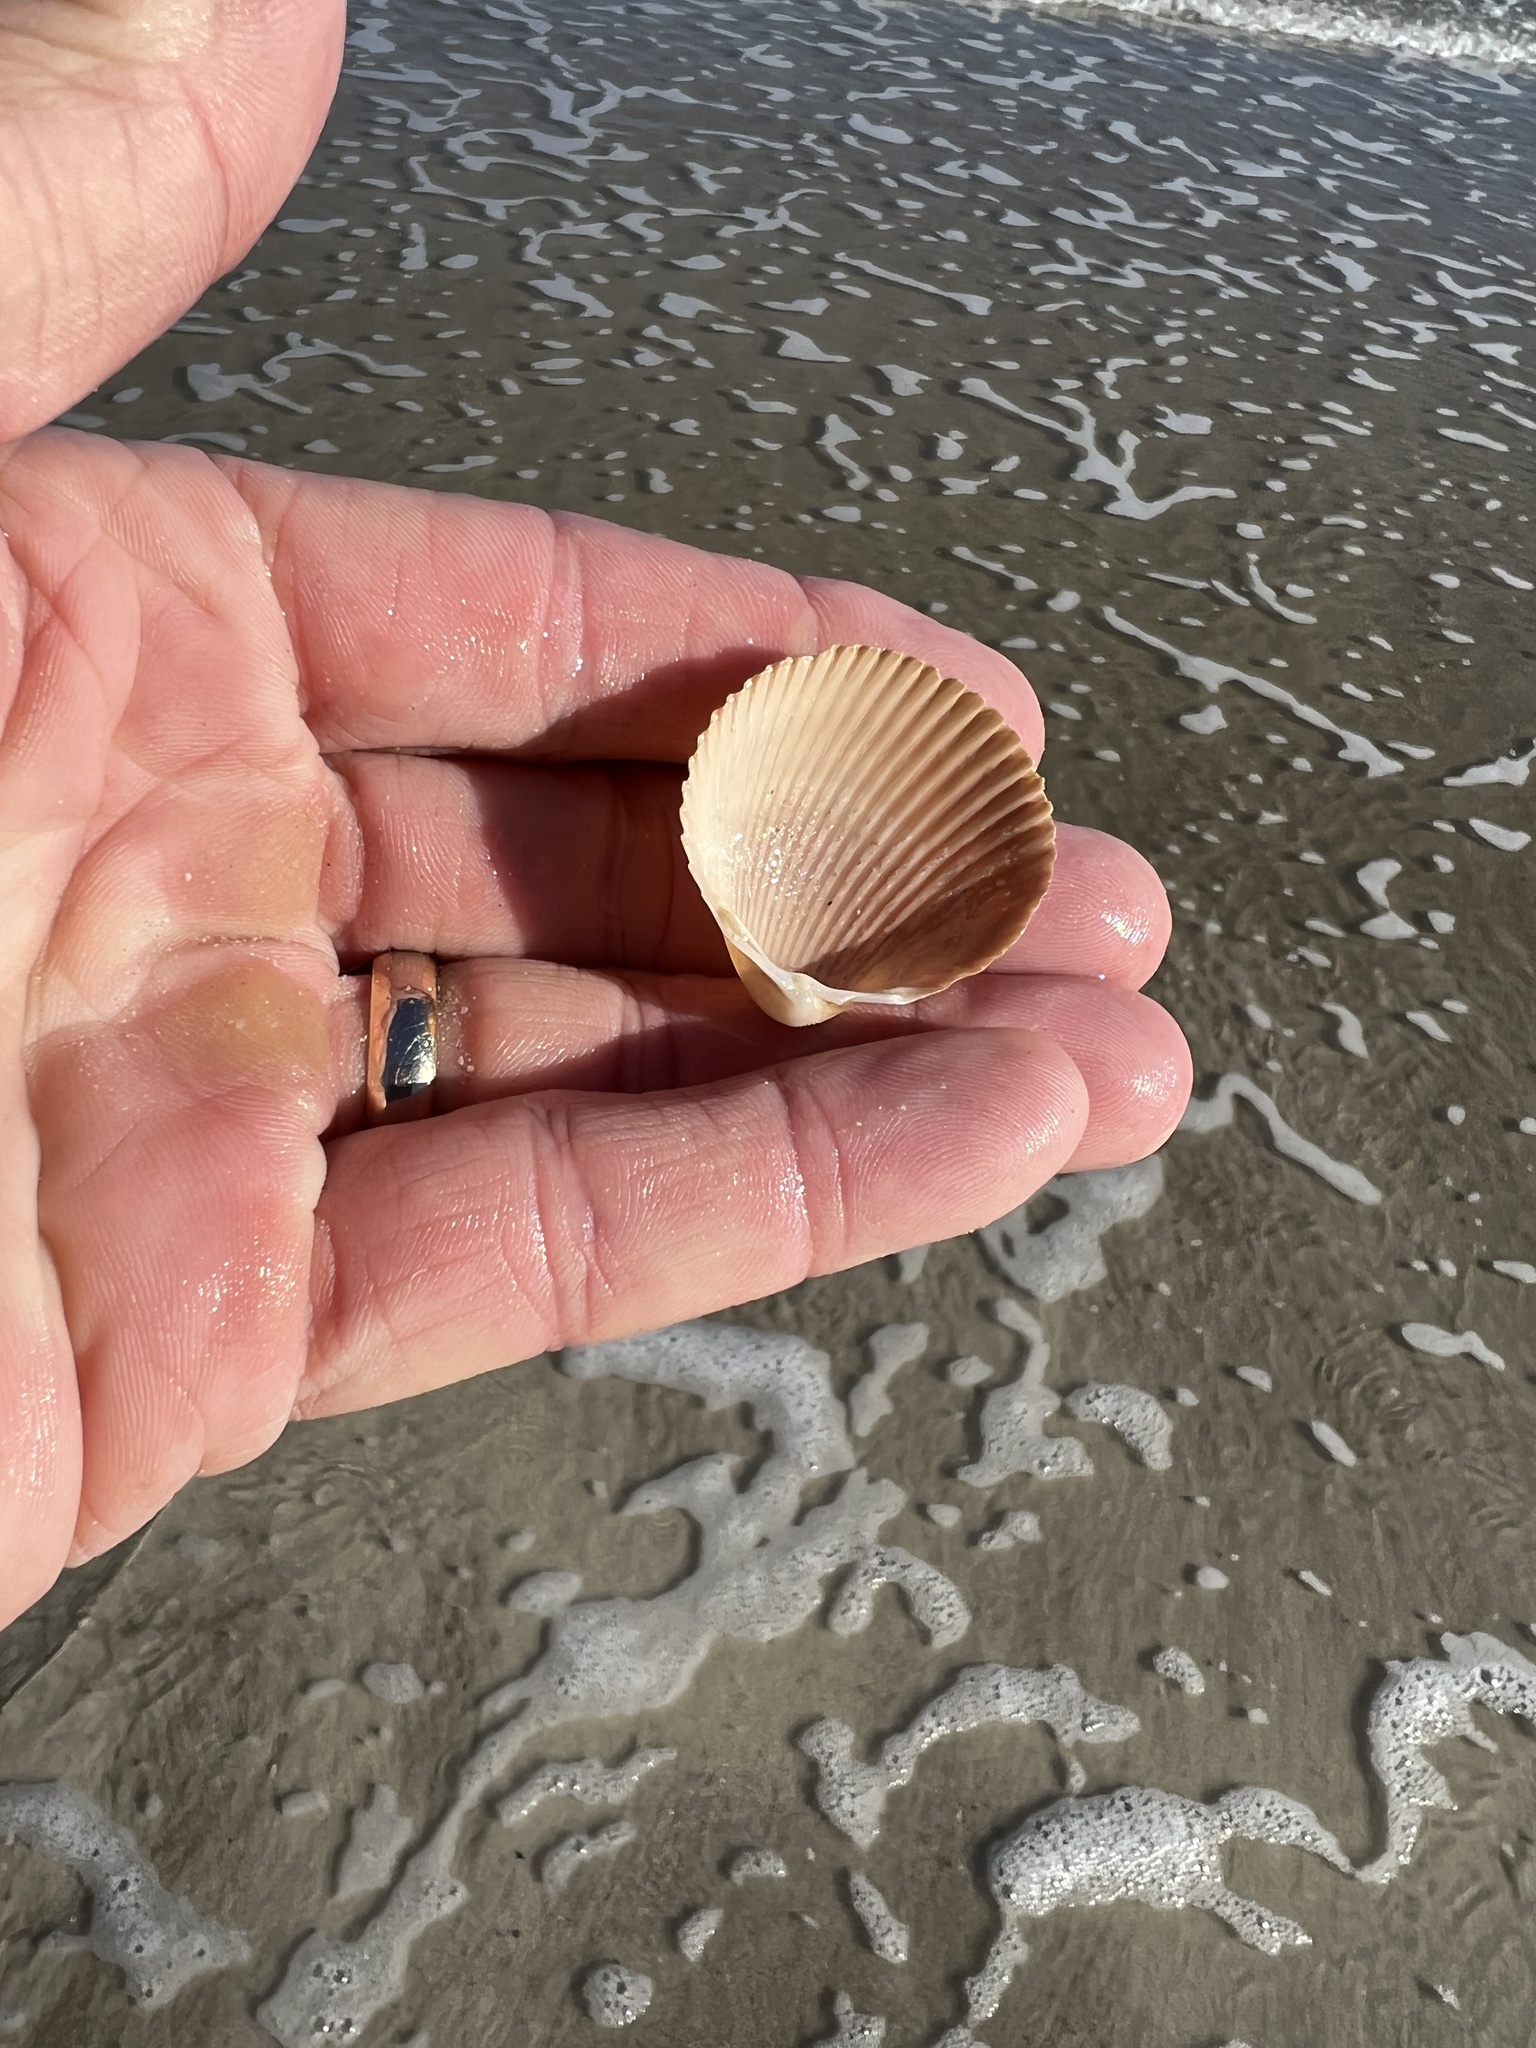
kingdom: Animalia
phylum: Mollusca
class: Bivalvia
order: Cardiida
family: Cardiidae
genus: Dinocardium
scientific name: Dinocardium robustum
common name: Atlantic giant cockle
